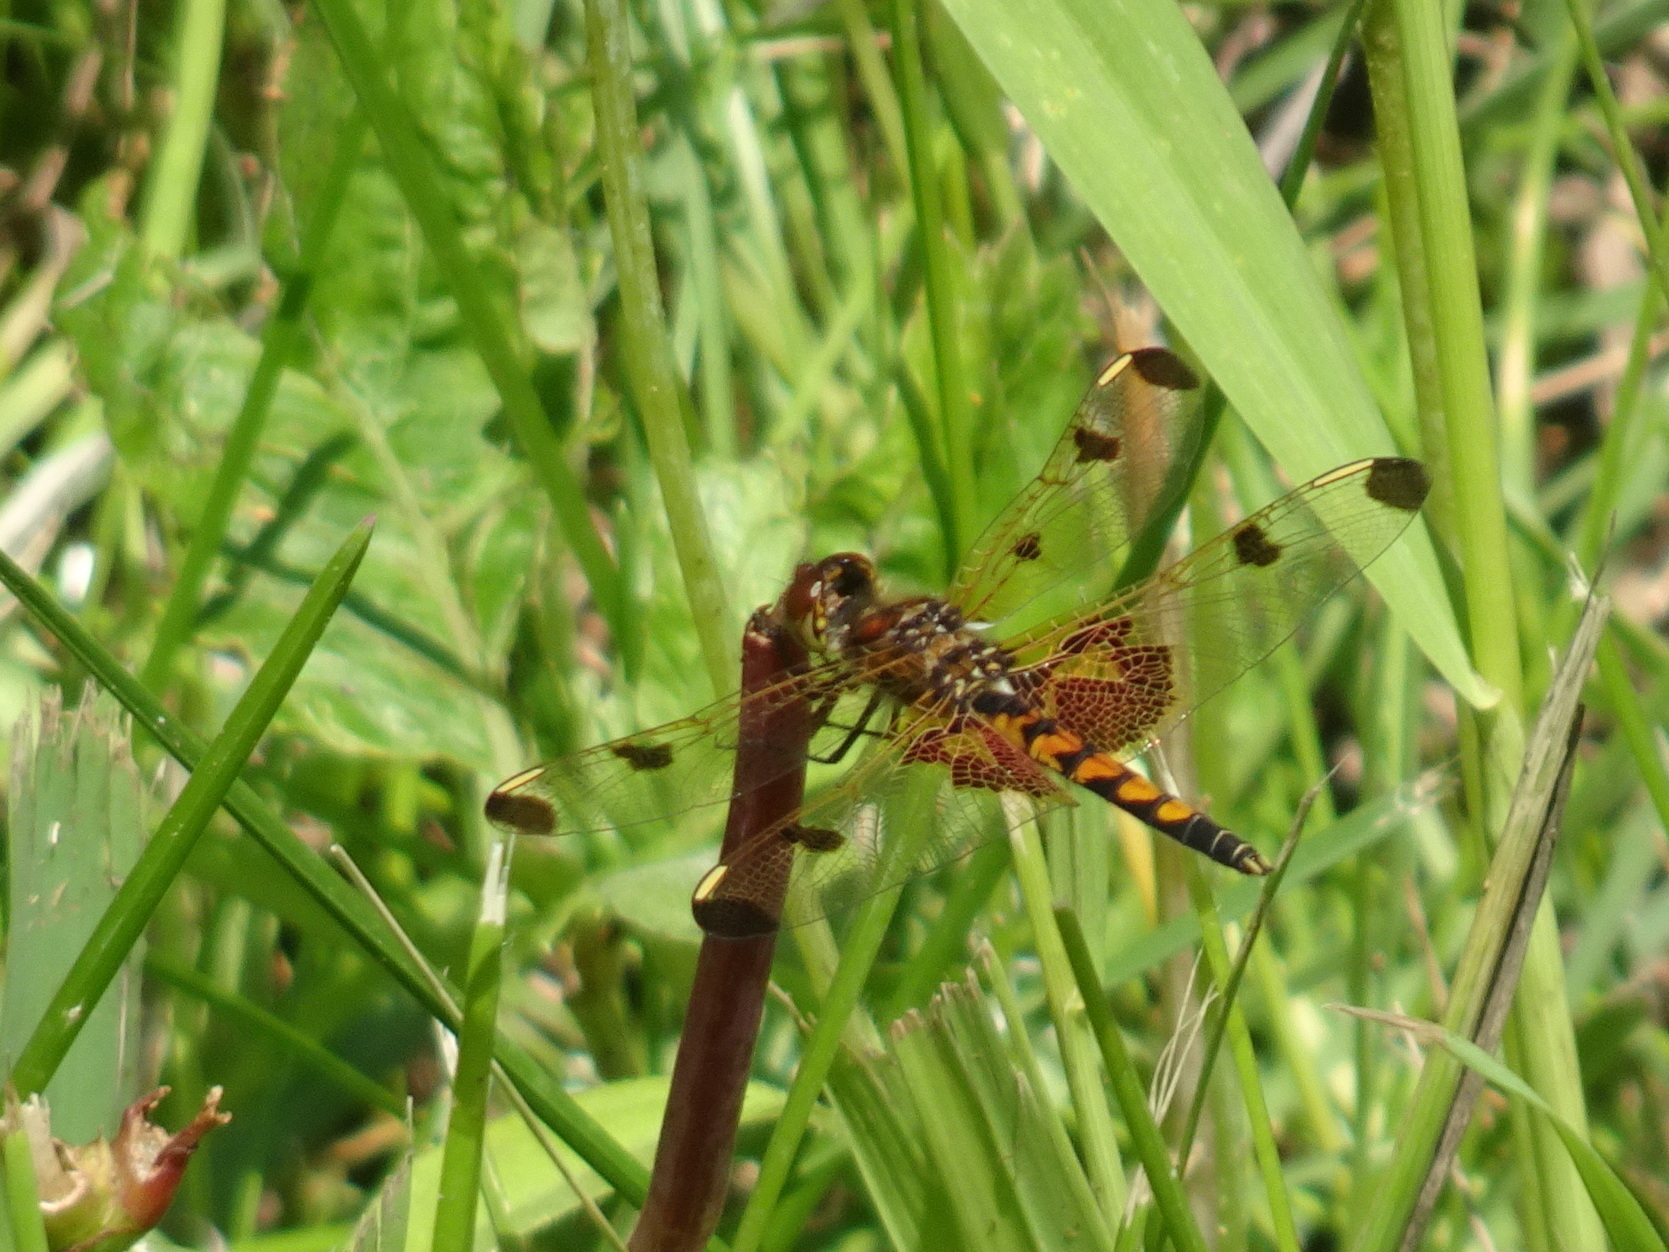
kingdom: Animalia
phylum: Arthropoda
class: Insecta
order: Odonata
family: Libellulidae
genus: Celithemis
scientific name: Celithemis elisa
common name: Calico pennant
